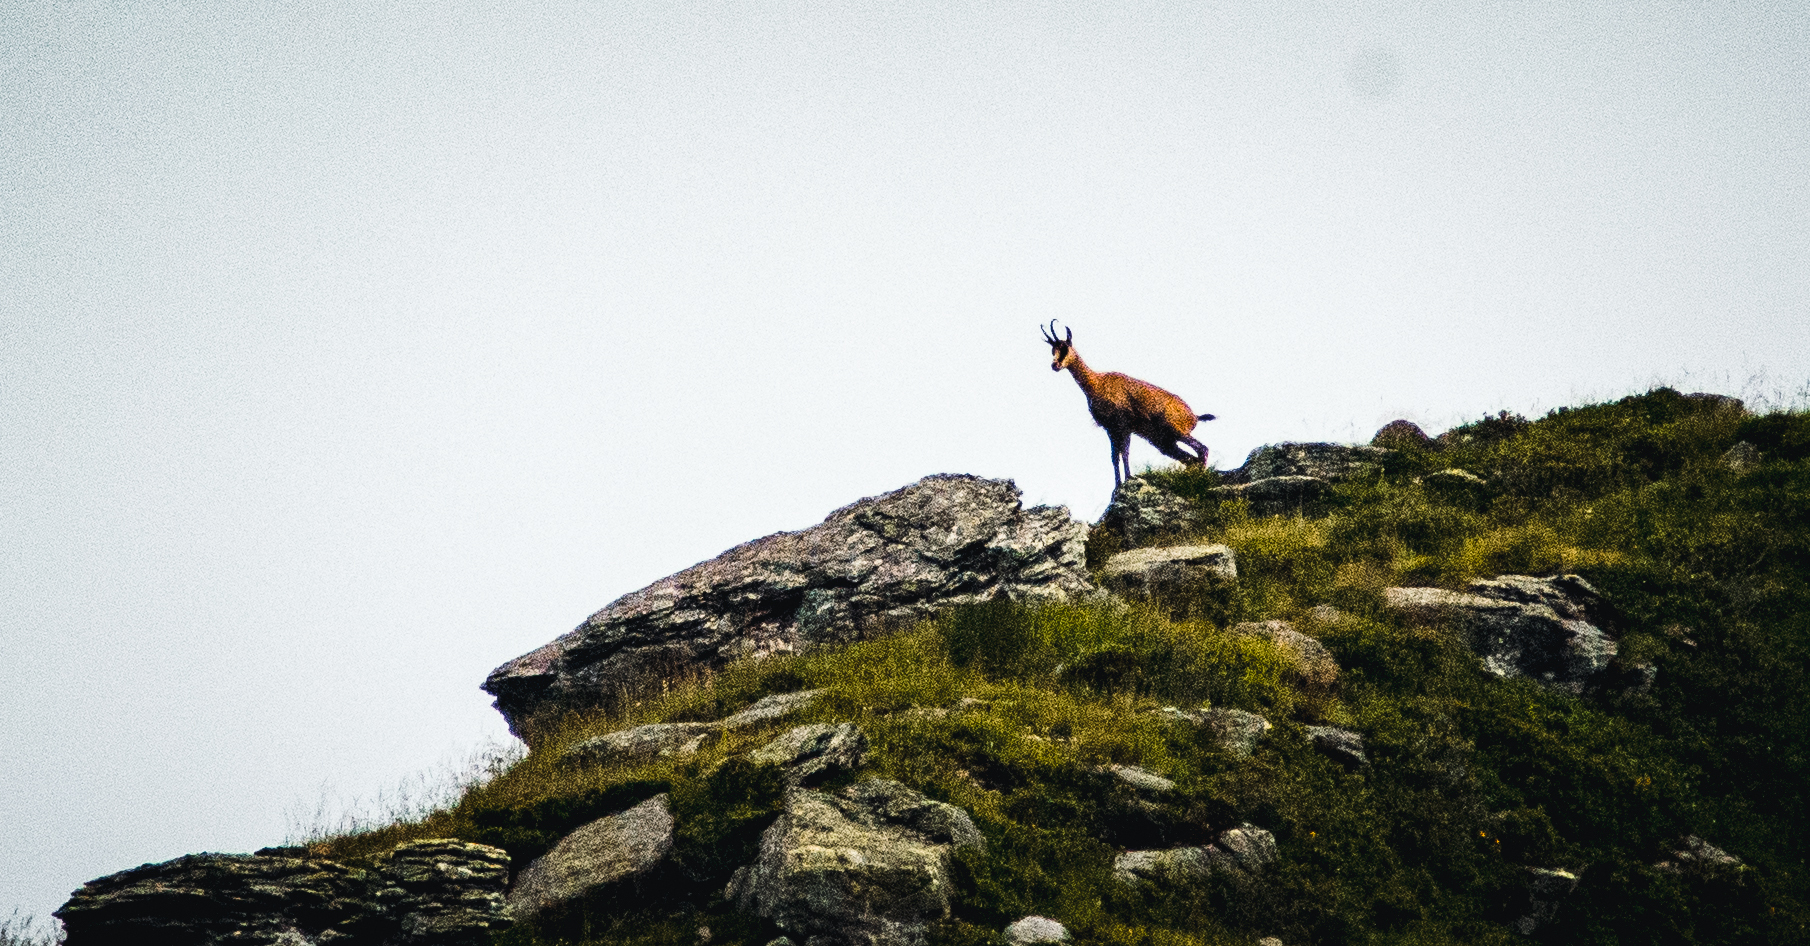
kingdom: Animalia
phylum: Chordata
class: Mammalia
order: Artiodactyla
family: Bovidae
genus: Rupicapra
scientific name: Rupicapra rupicapra
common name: Chamois
